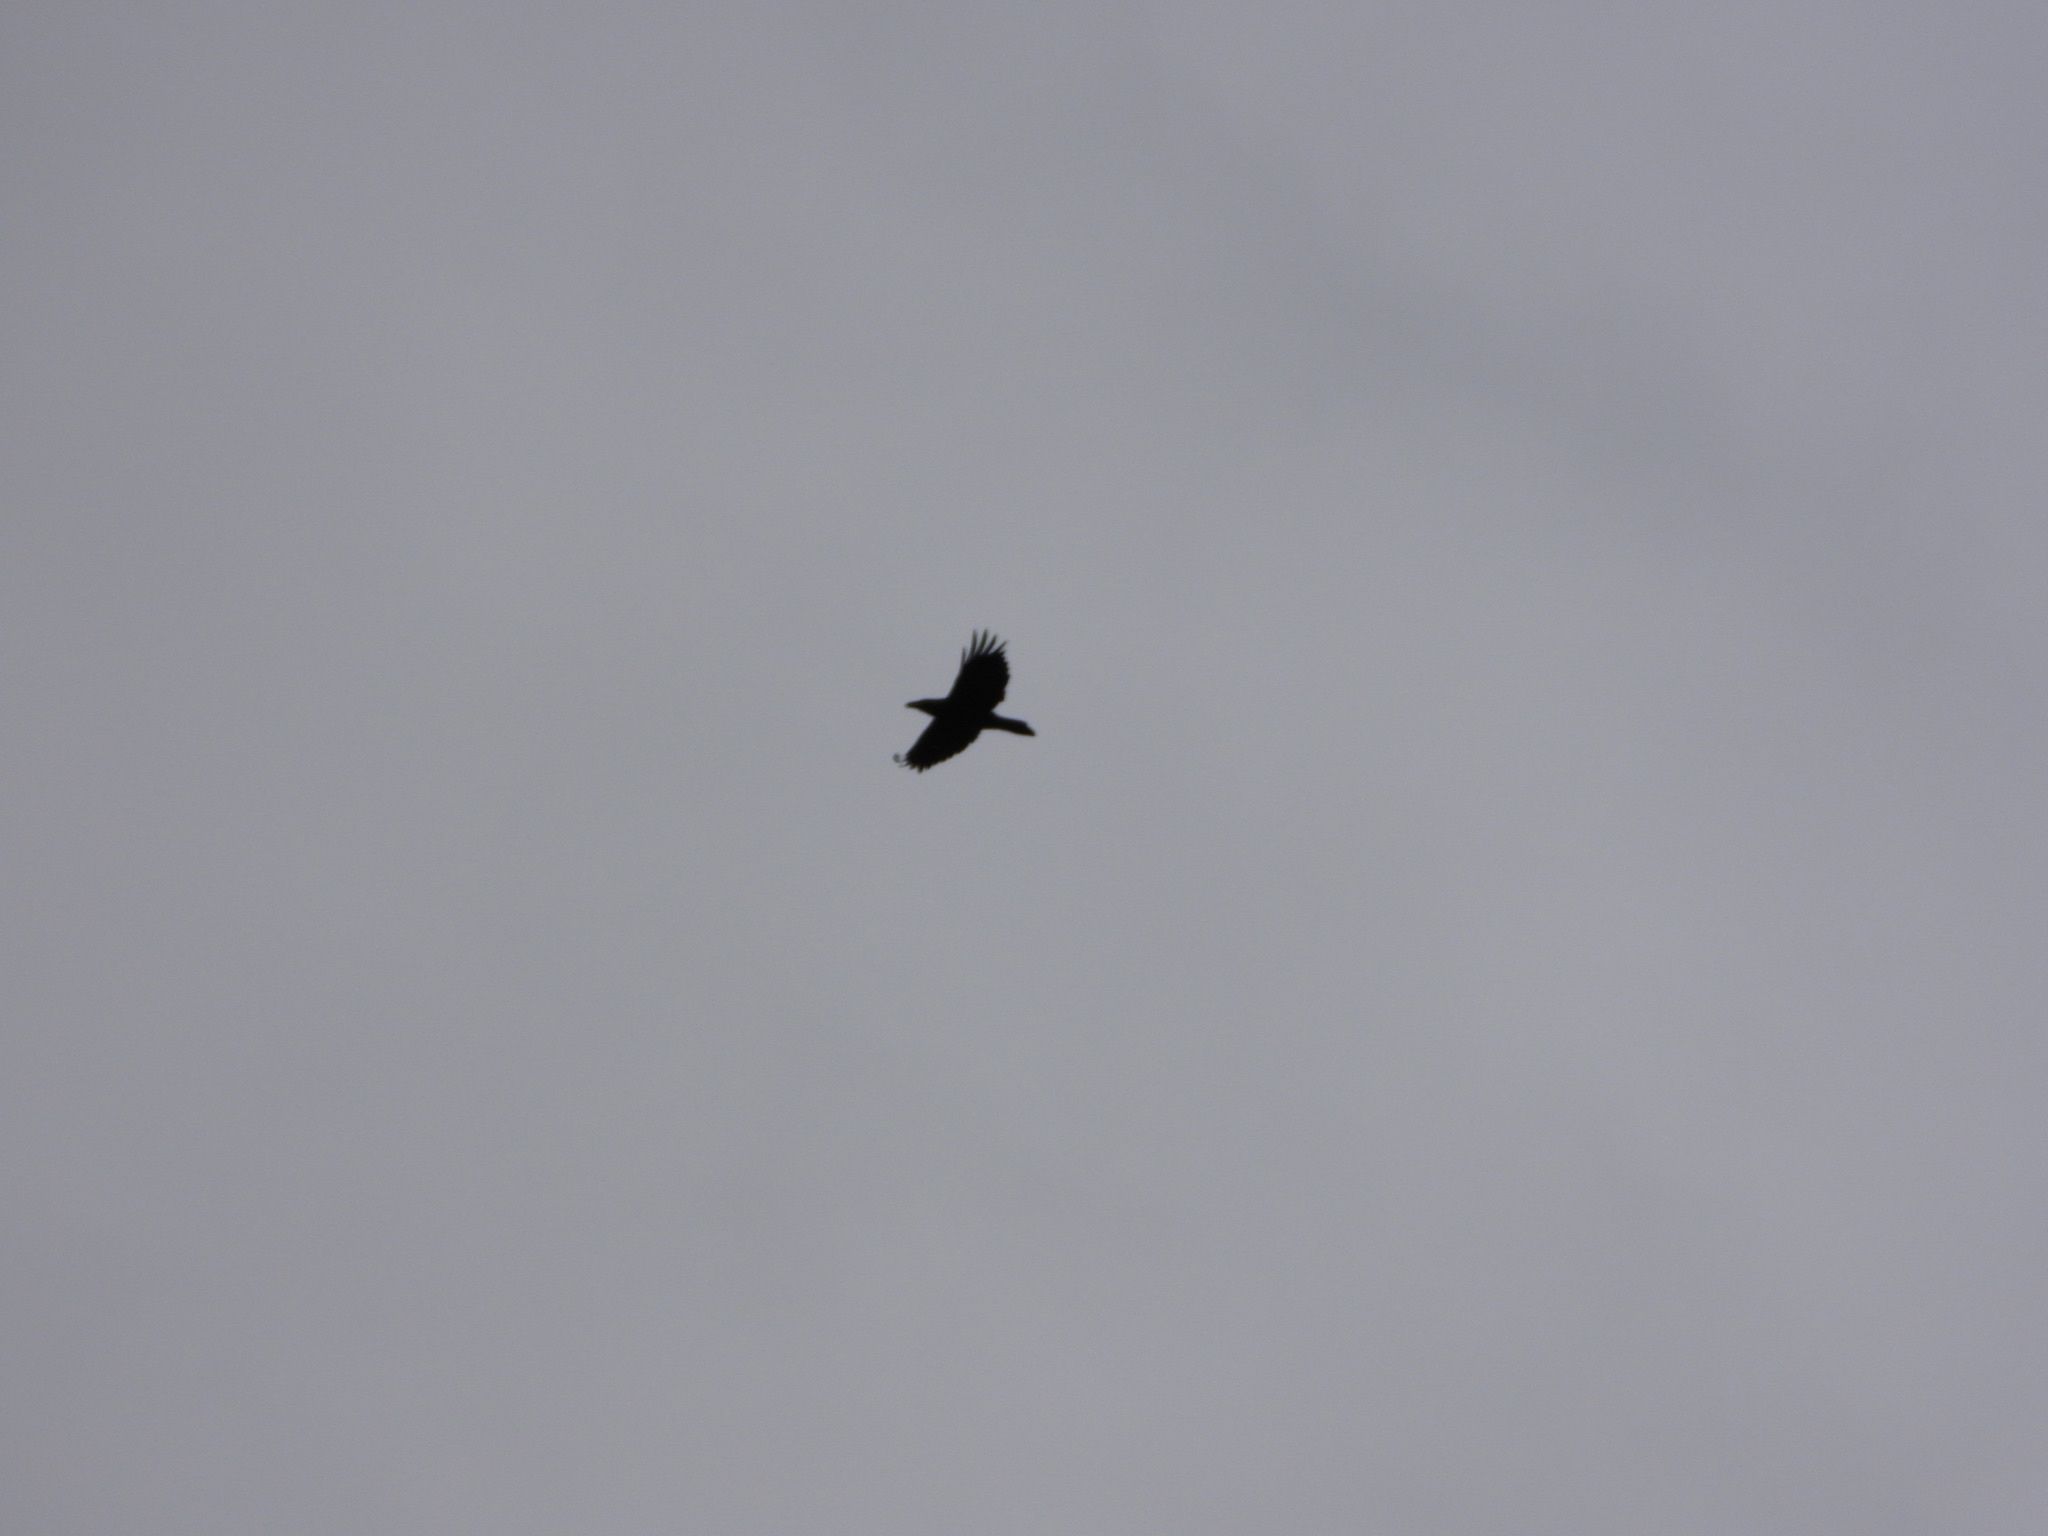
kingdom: Animalia
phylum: Chordata
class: Aves
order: Passeriformes
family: Corvidae
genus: Corvus
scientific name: Corvus corax
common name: Common raven
